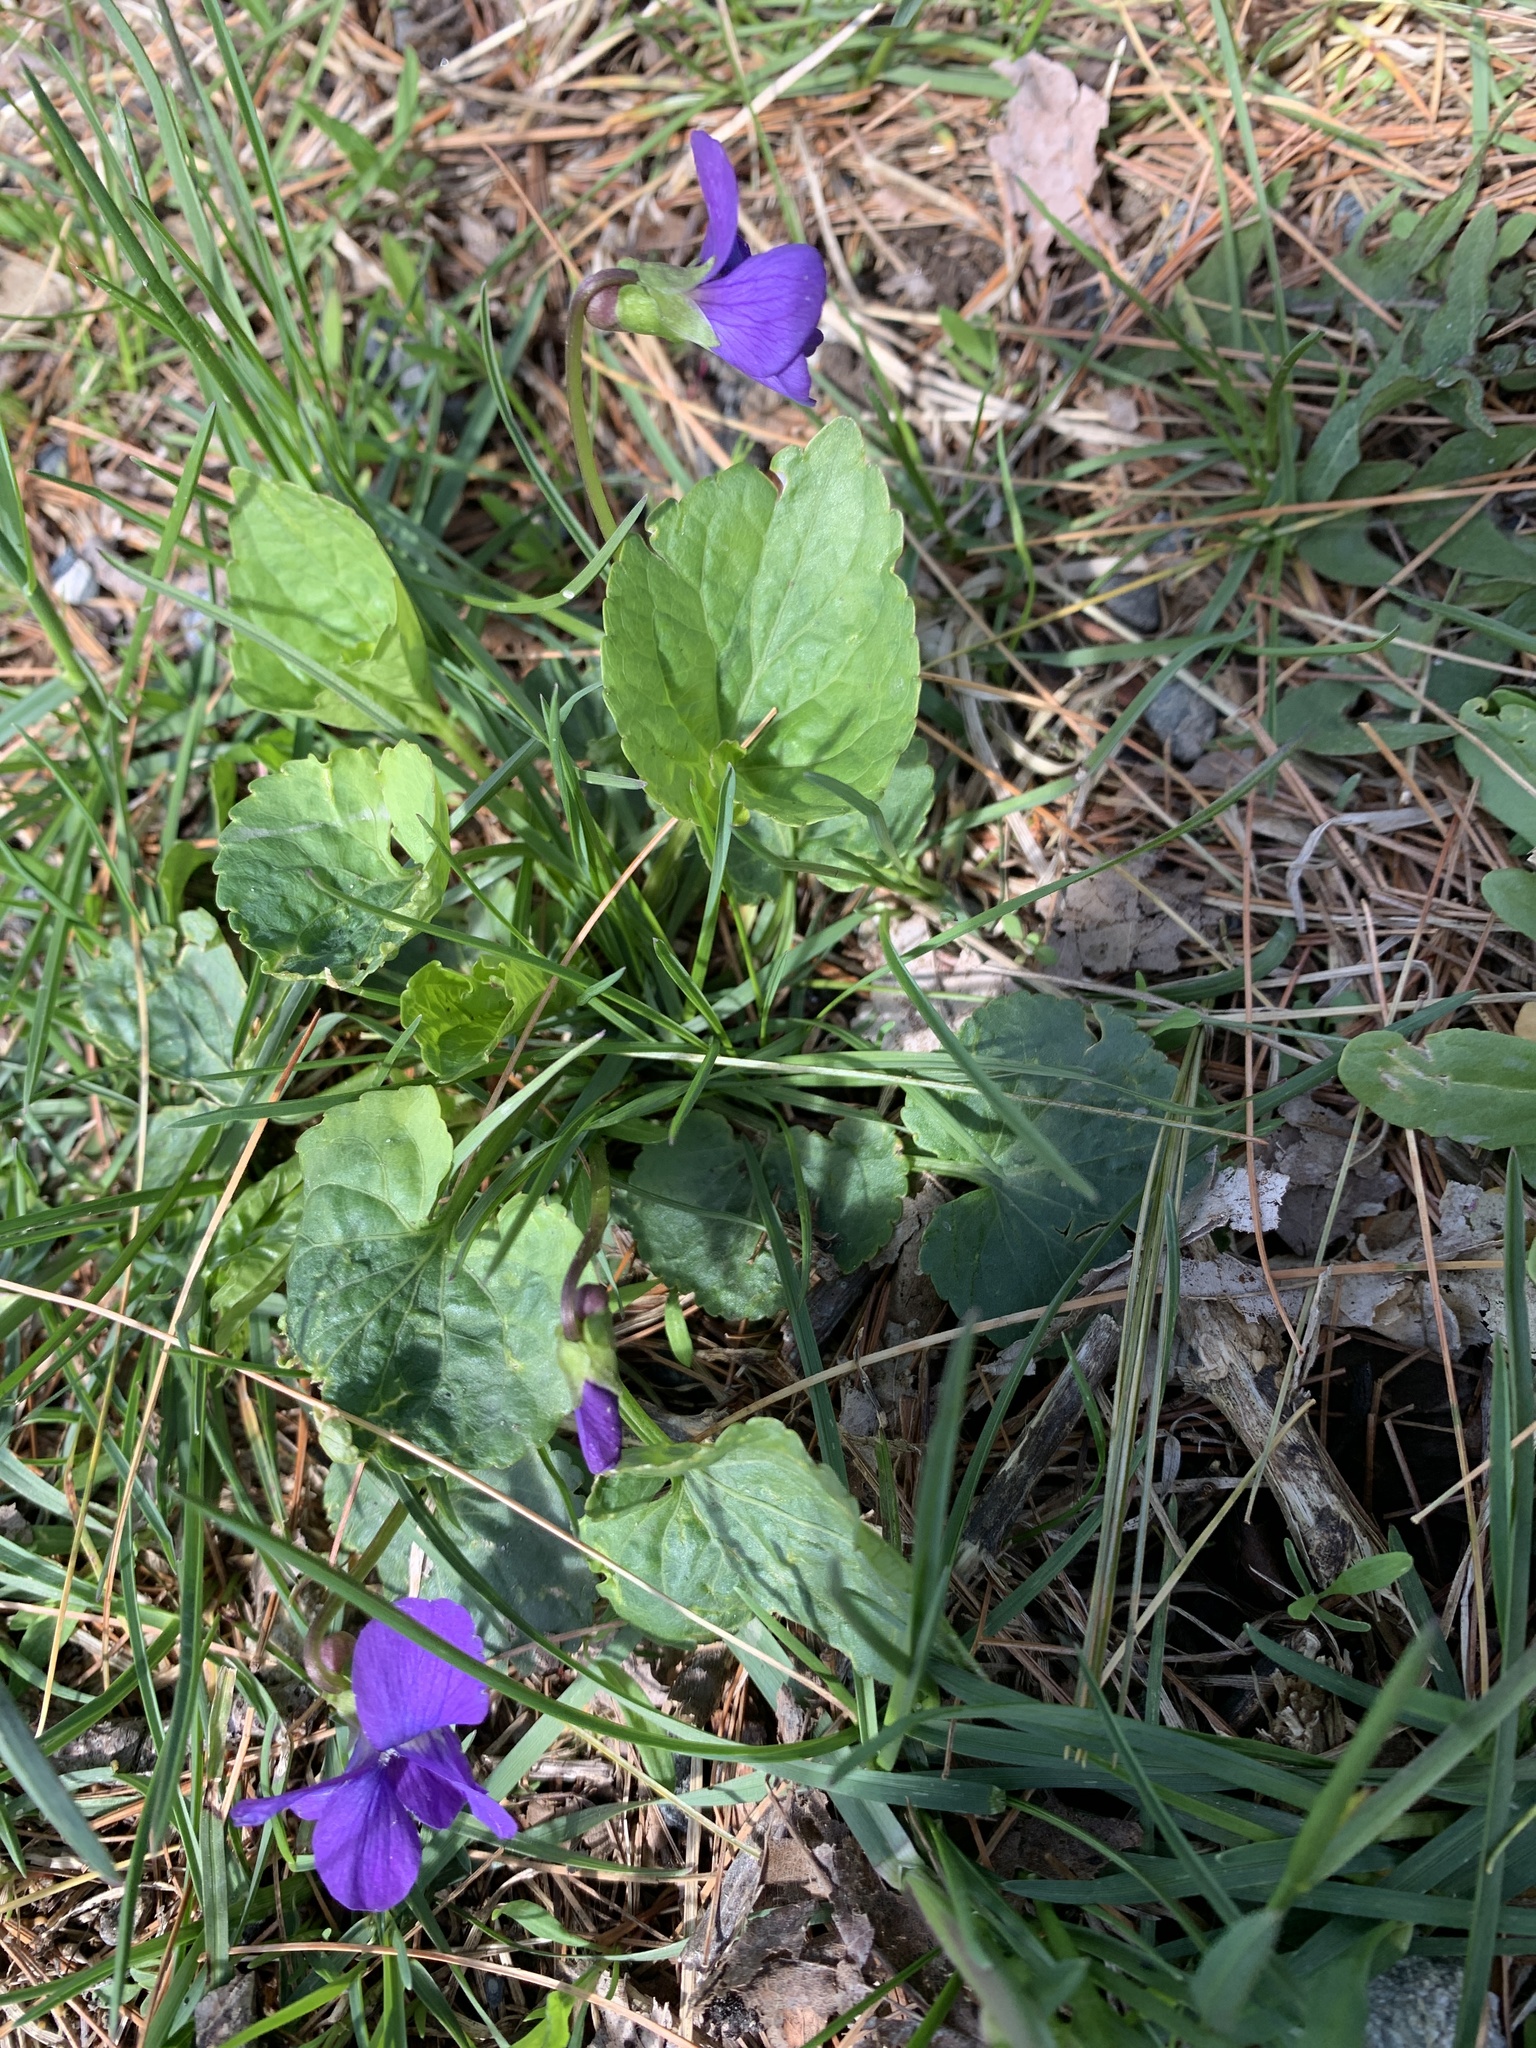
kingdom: Plantae
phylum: Tracheophyta
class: Magnoliopsida
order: Malpighiales
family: Violaceae
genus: Viola
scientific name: Viola sororia
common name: Dooryard violet
